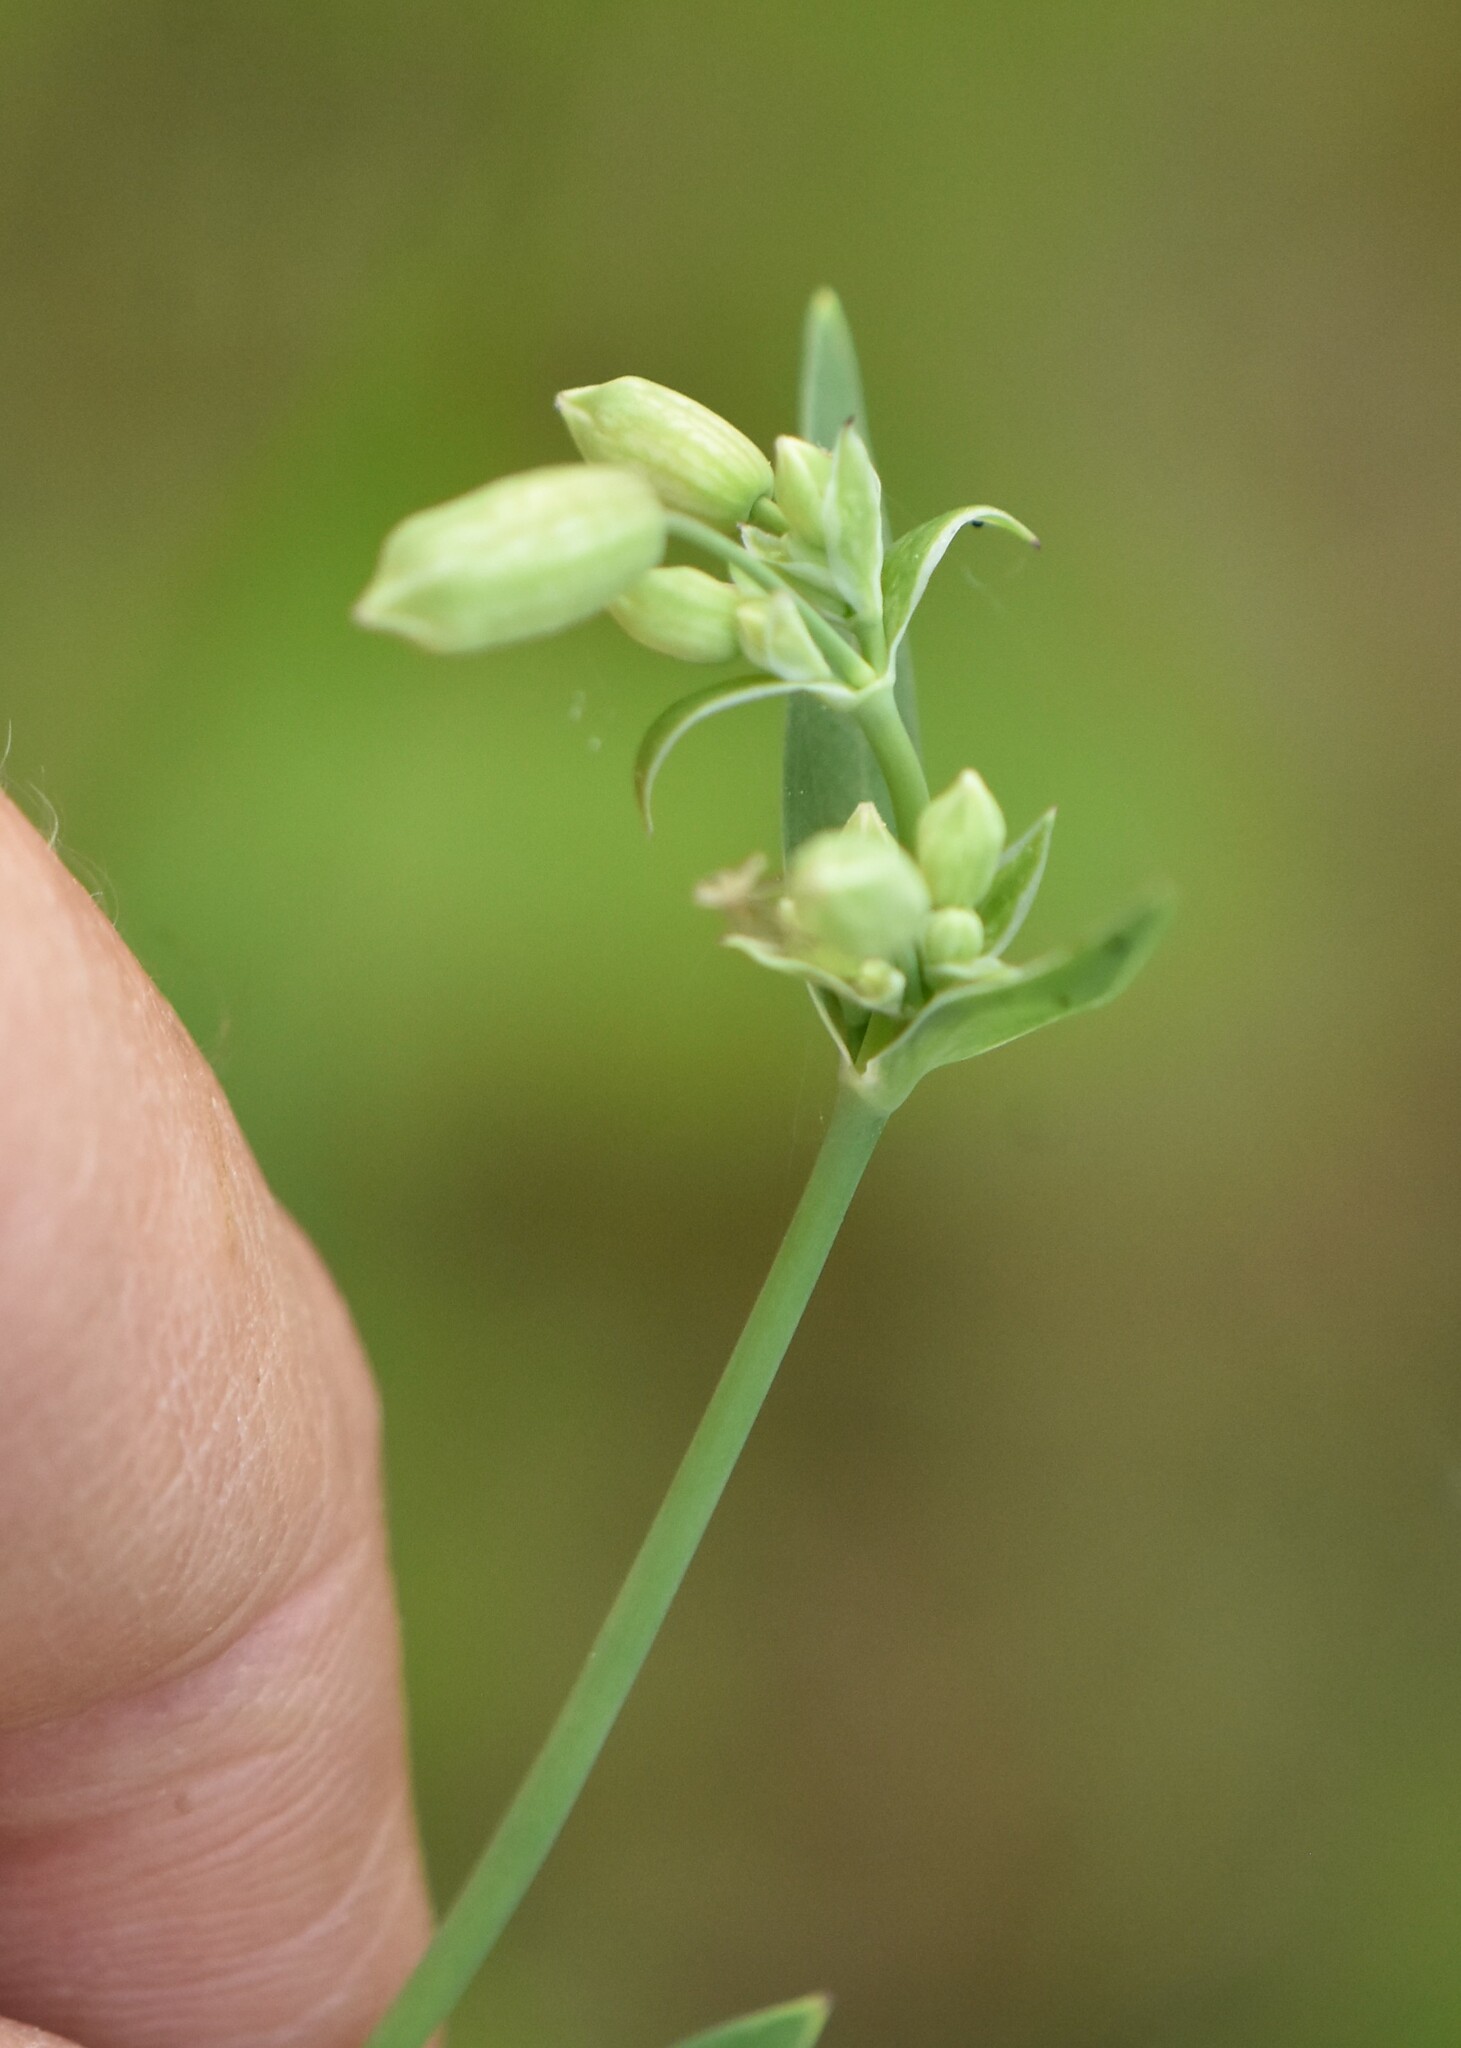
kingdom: Plantae
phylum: Tracheophyta
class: Magnoliopsida
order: Caryophyllales
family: Caryophyllaceae
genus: Silene
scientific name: Silene vulgaris
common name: Bladder campion
